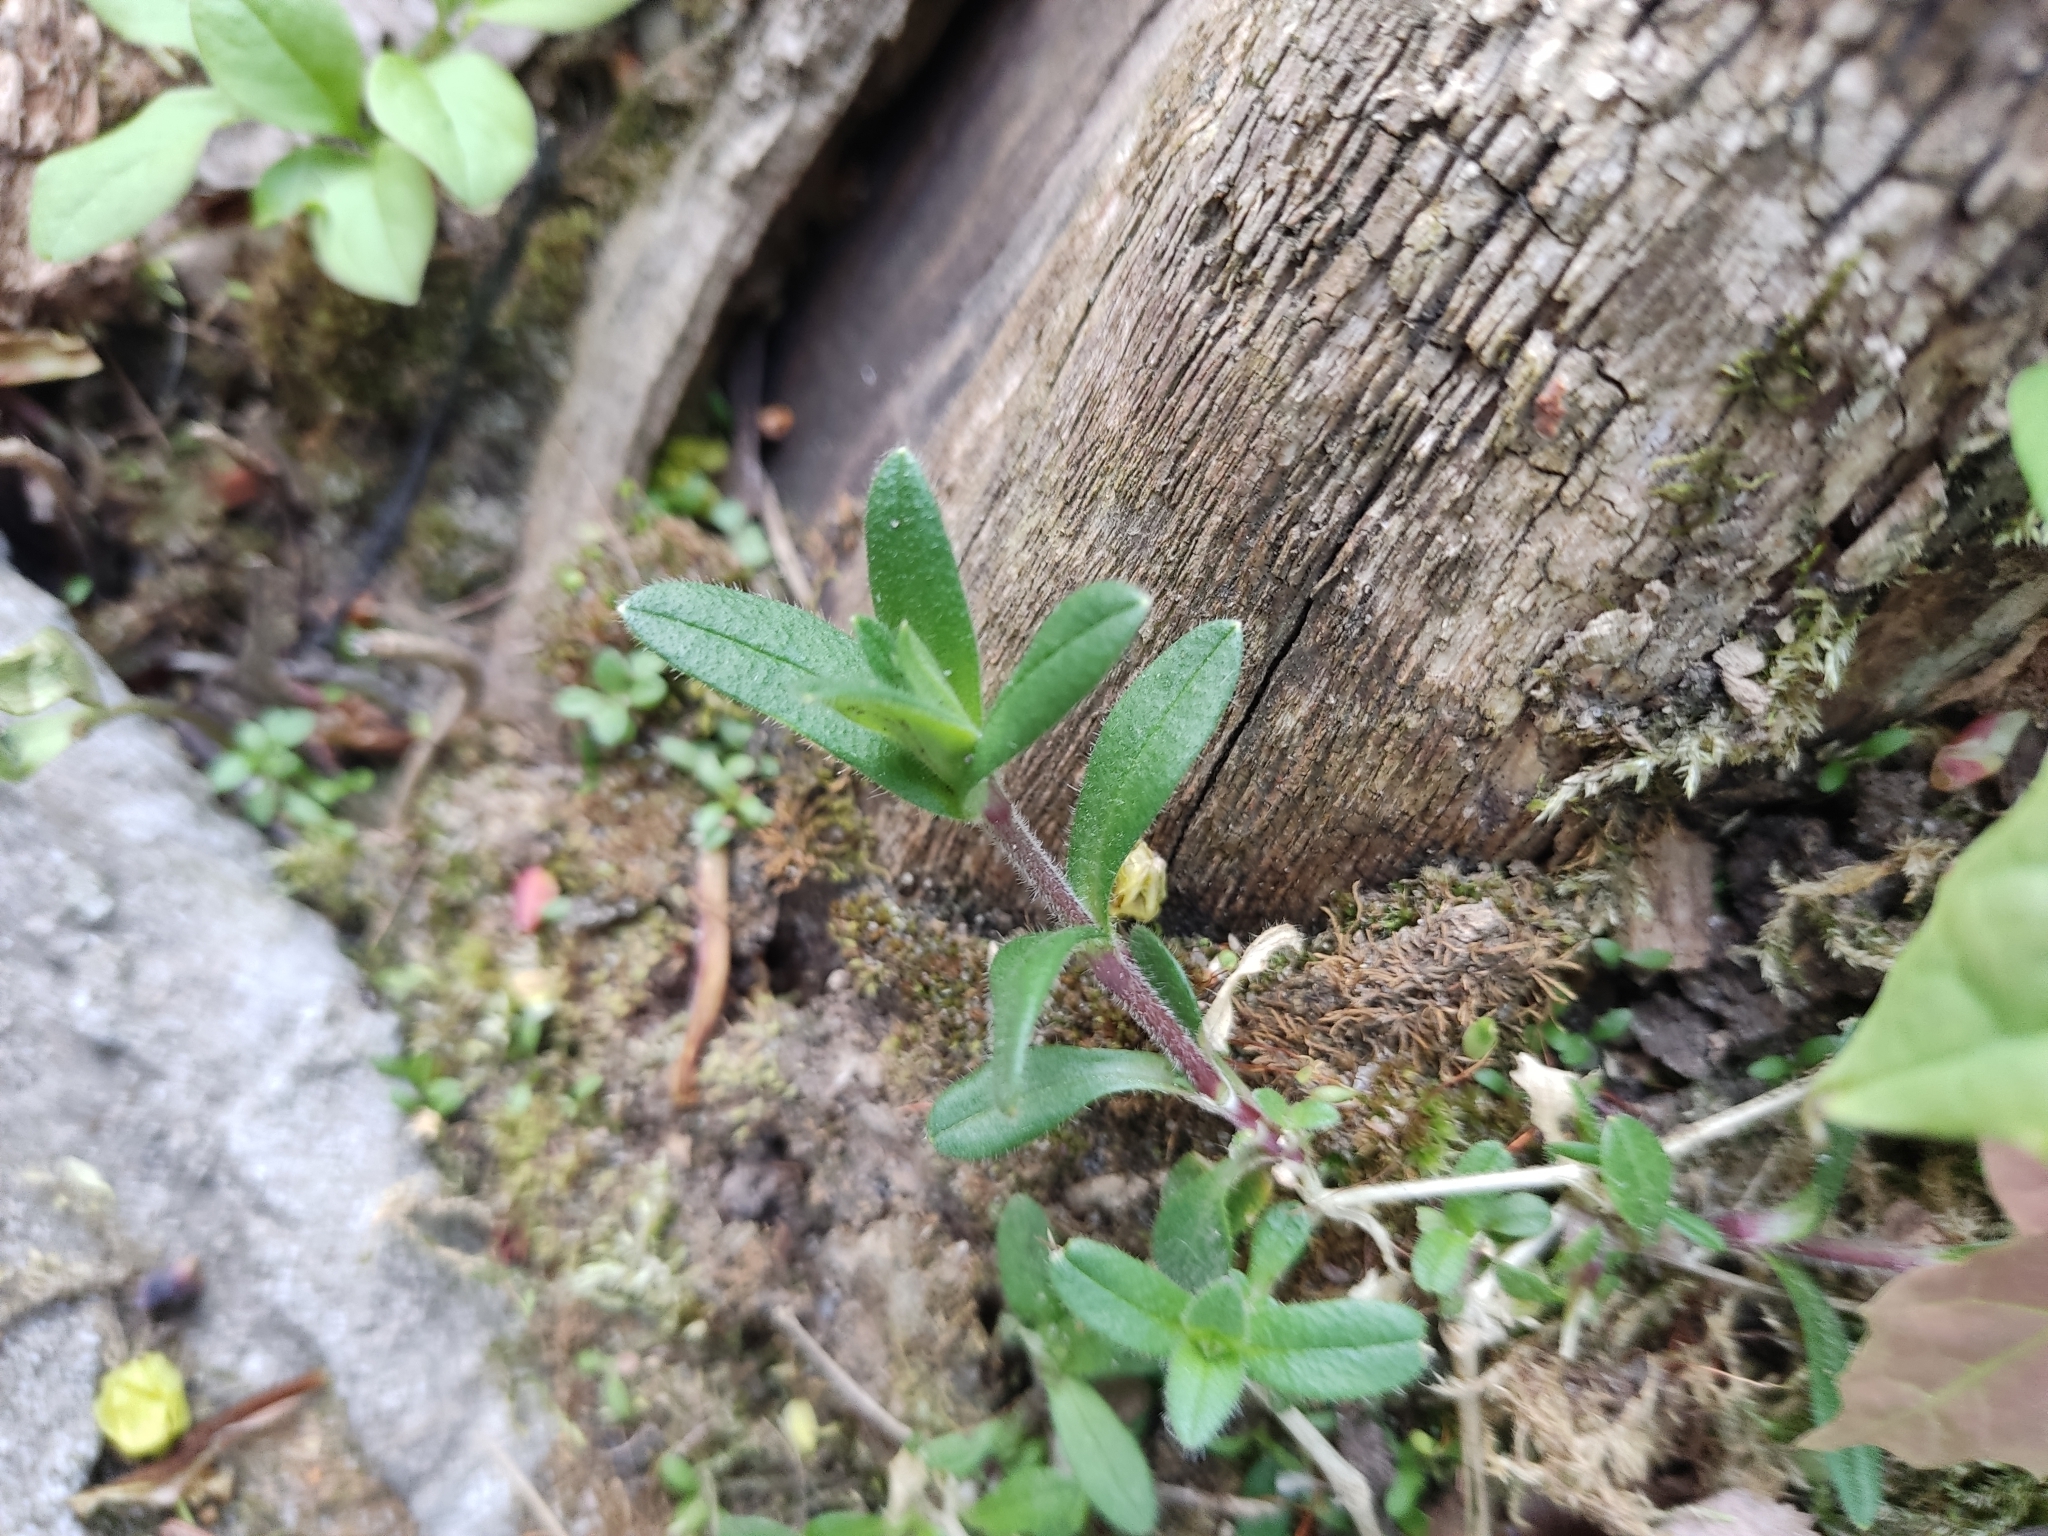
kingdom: Plantae
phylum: Tracheophyta
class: Magnoliopsida
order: Caryophyllales
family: Caryophyllaceae
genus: Cerastium
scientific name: Cerastium holosteoides
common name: Big chickweed
